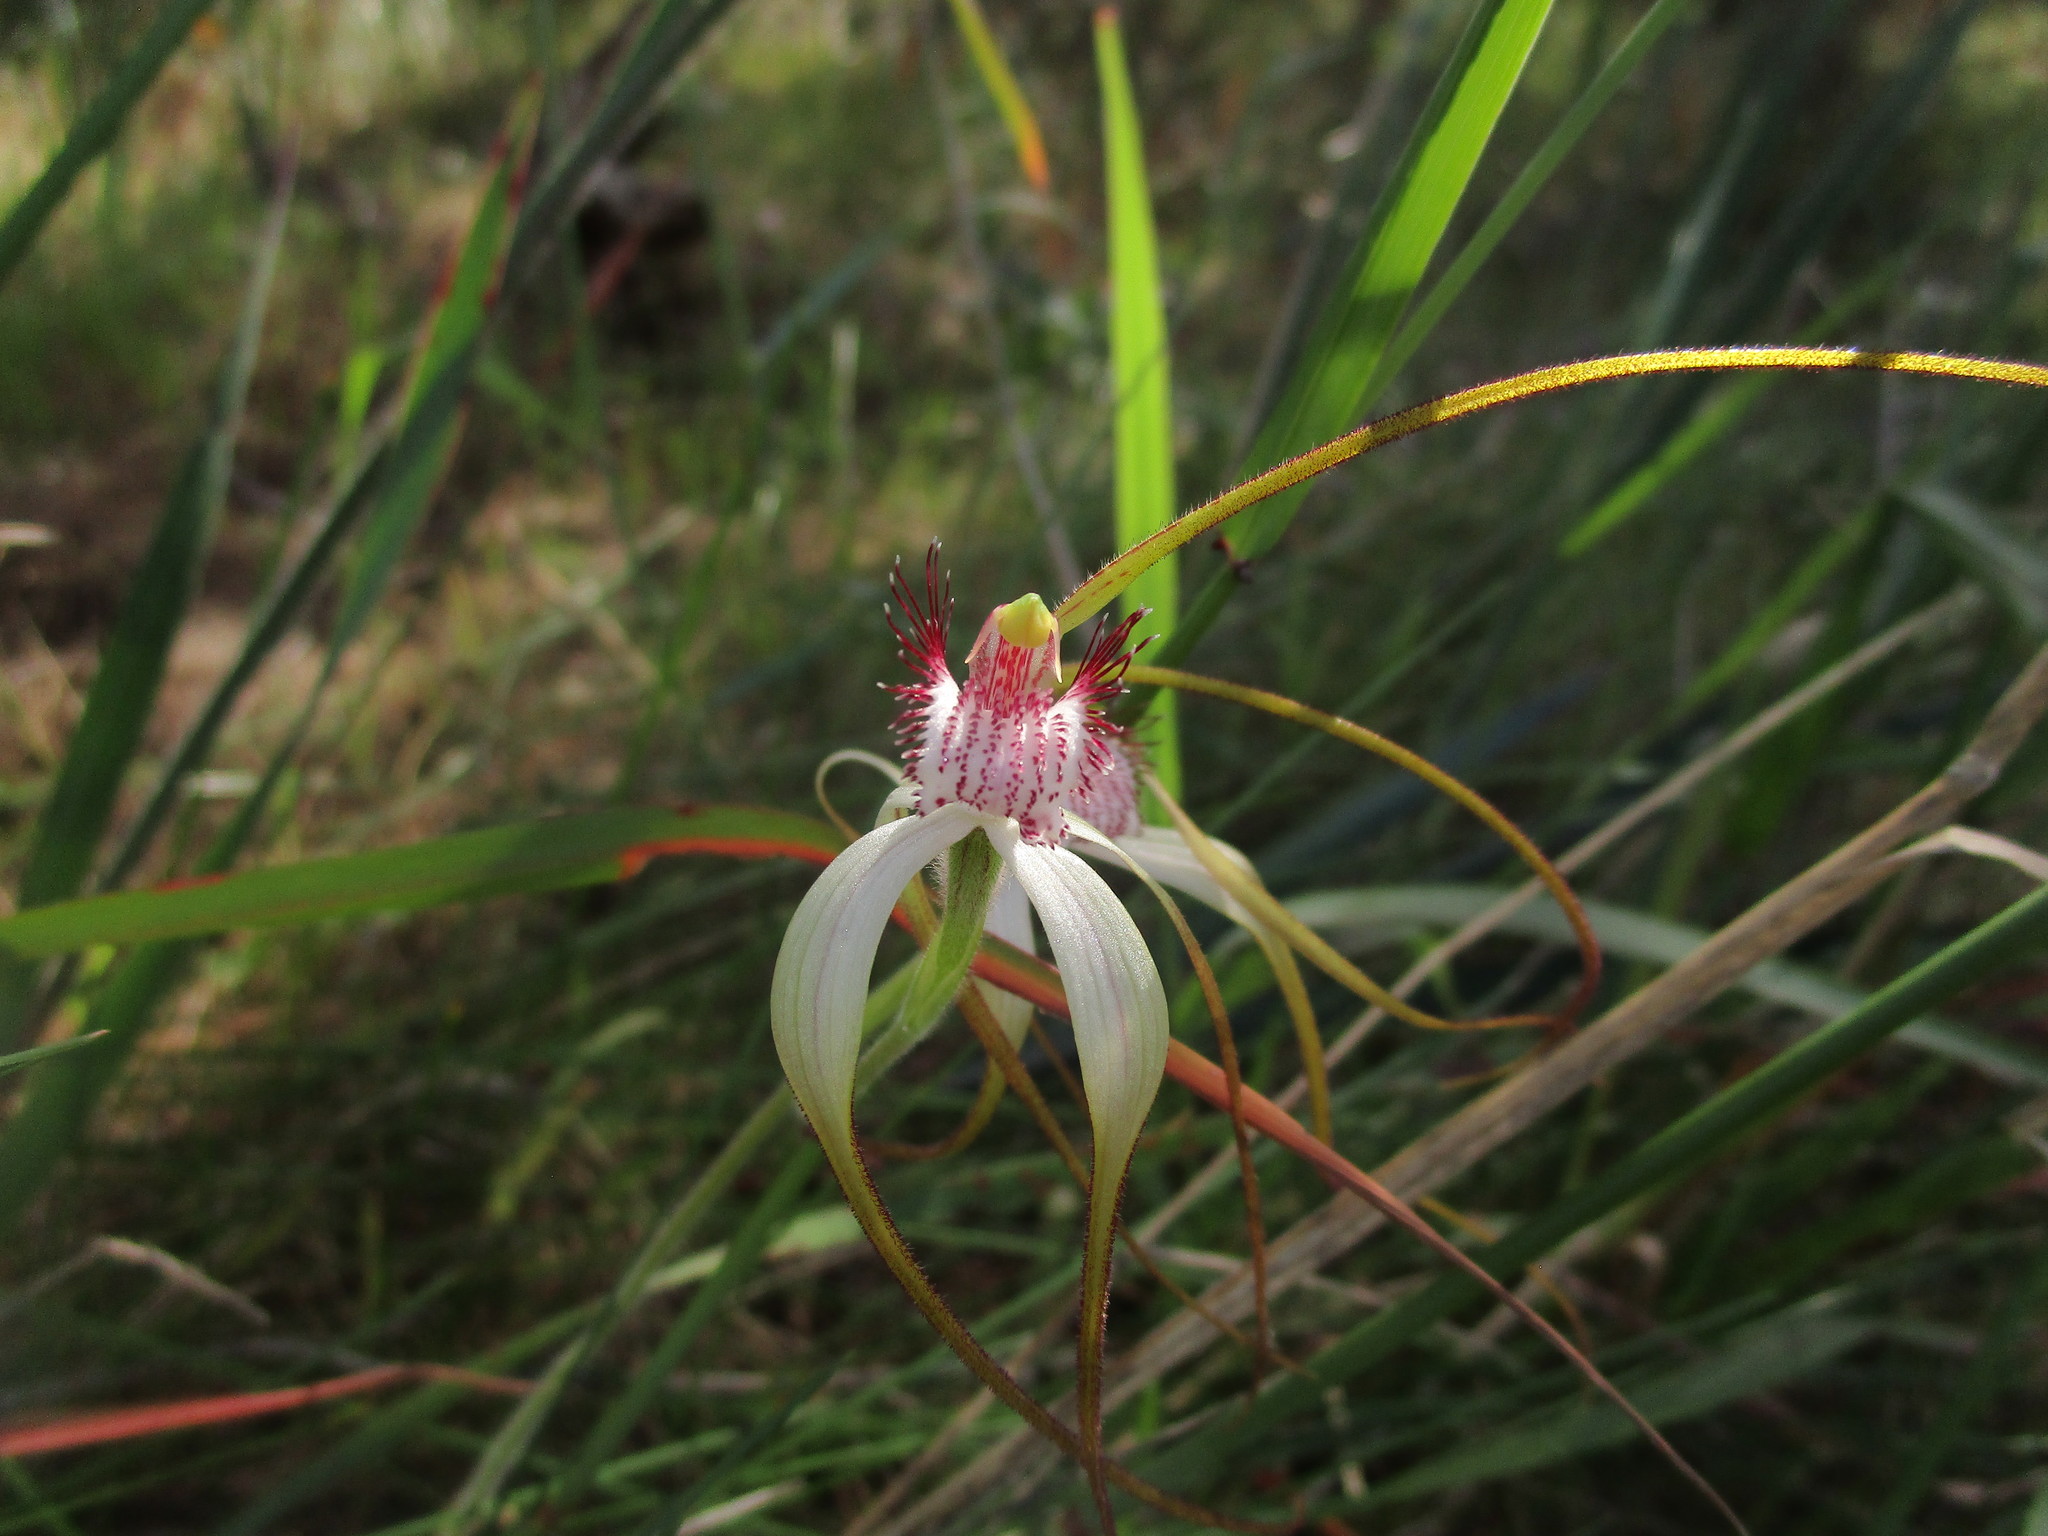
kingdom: Plantae
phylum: Tracheophyta
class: Liliopsida
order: Asparagales
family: Orchidaceae
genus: Caladenia
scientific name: Caladenia longicauda
